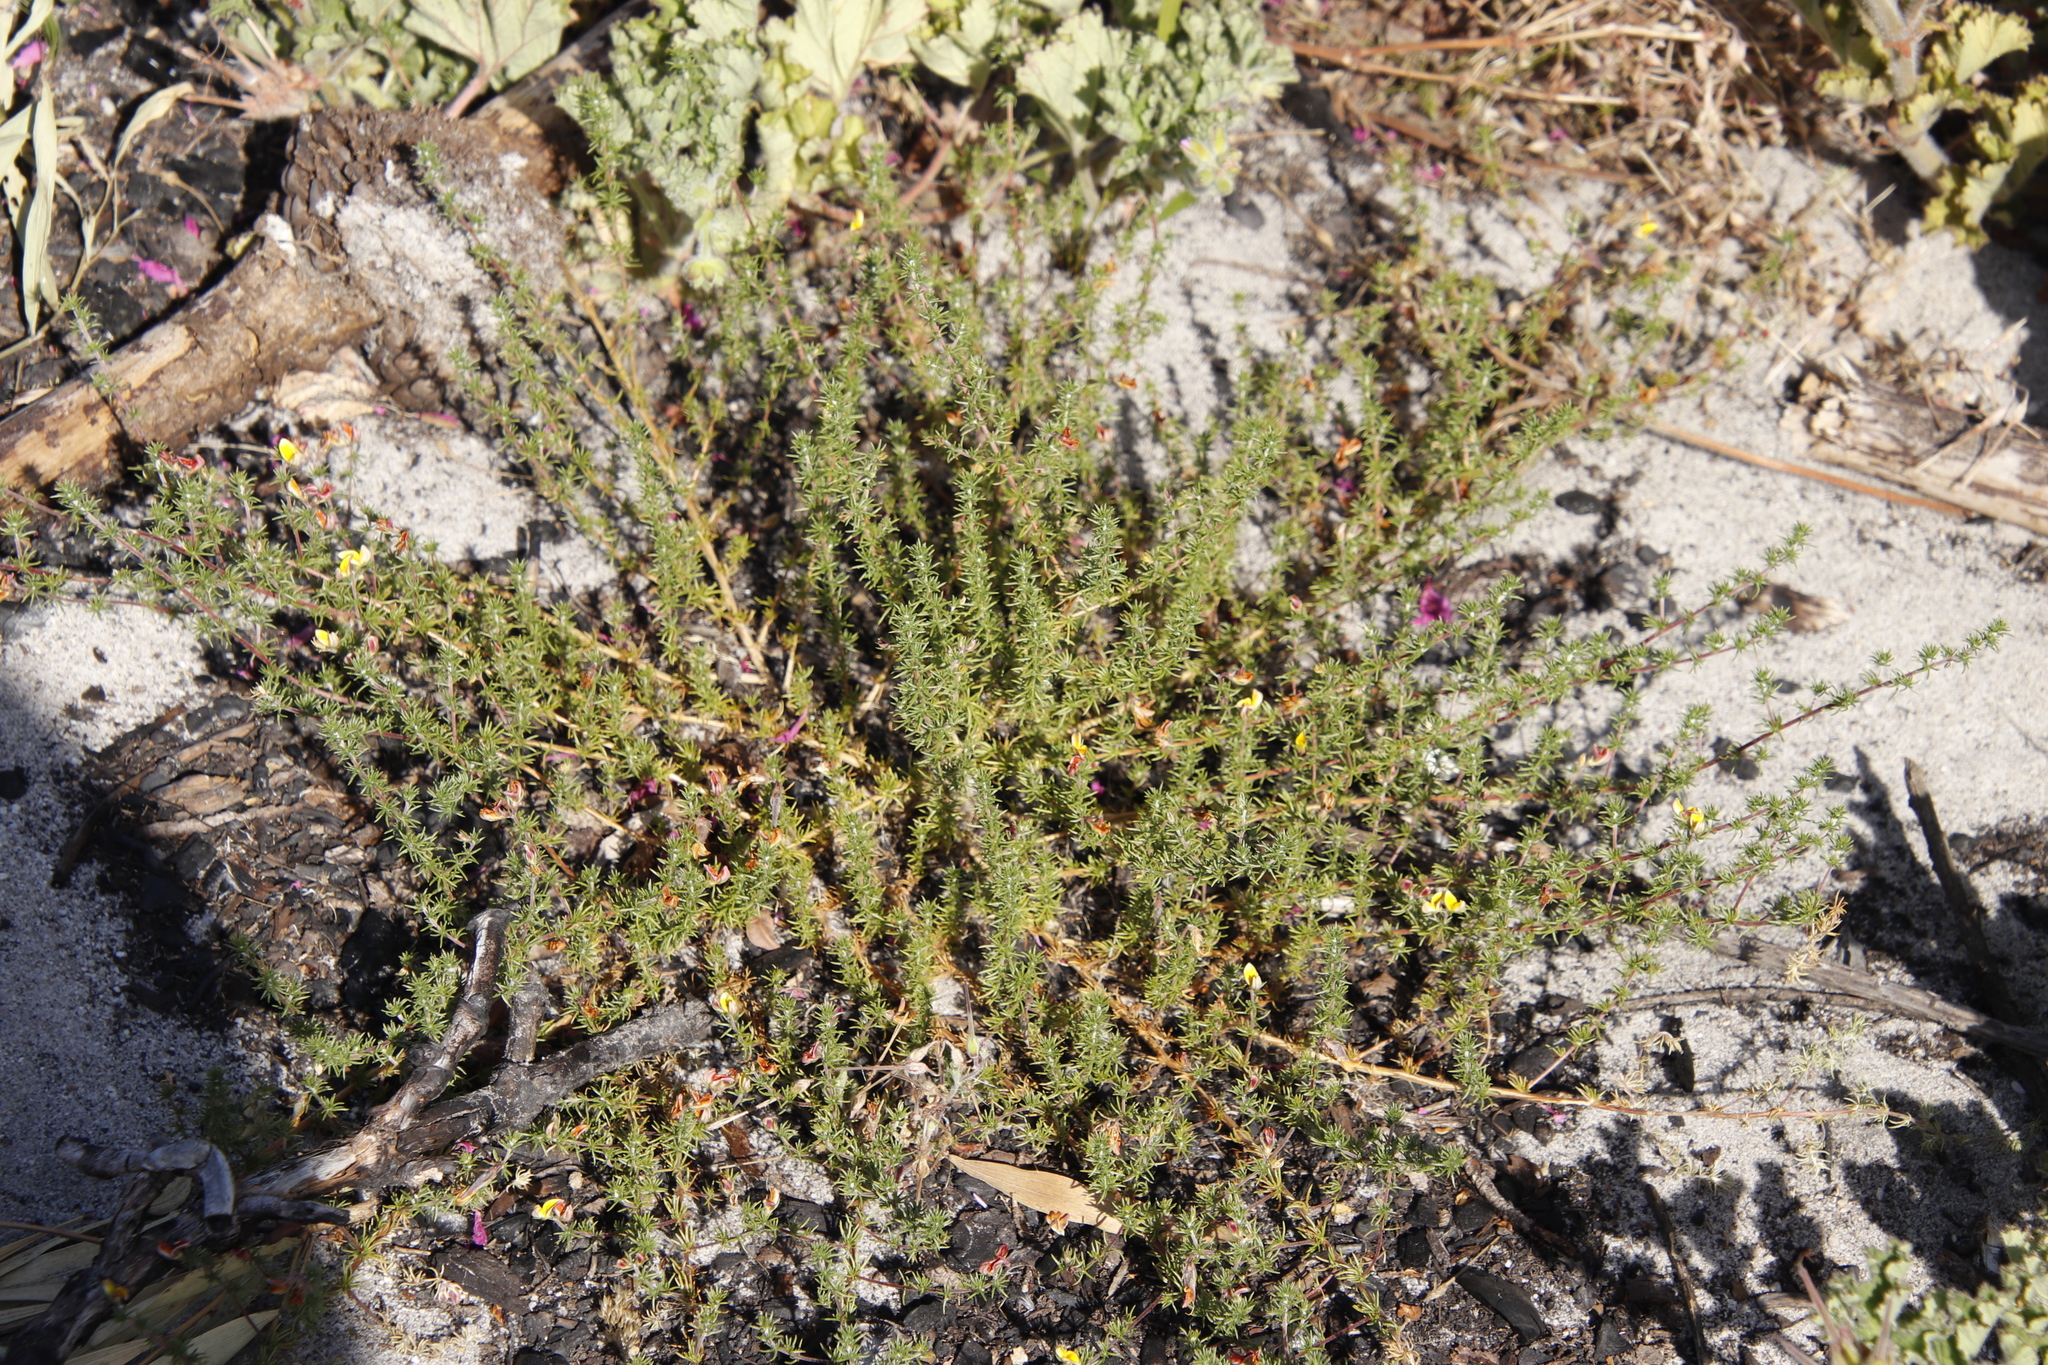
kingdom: Plantae
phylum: Tracheophyta
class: Magnoliopsida
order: Fabales
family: Fabaceae
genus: Aspalathus
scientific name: Aspalathus retroflexa
